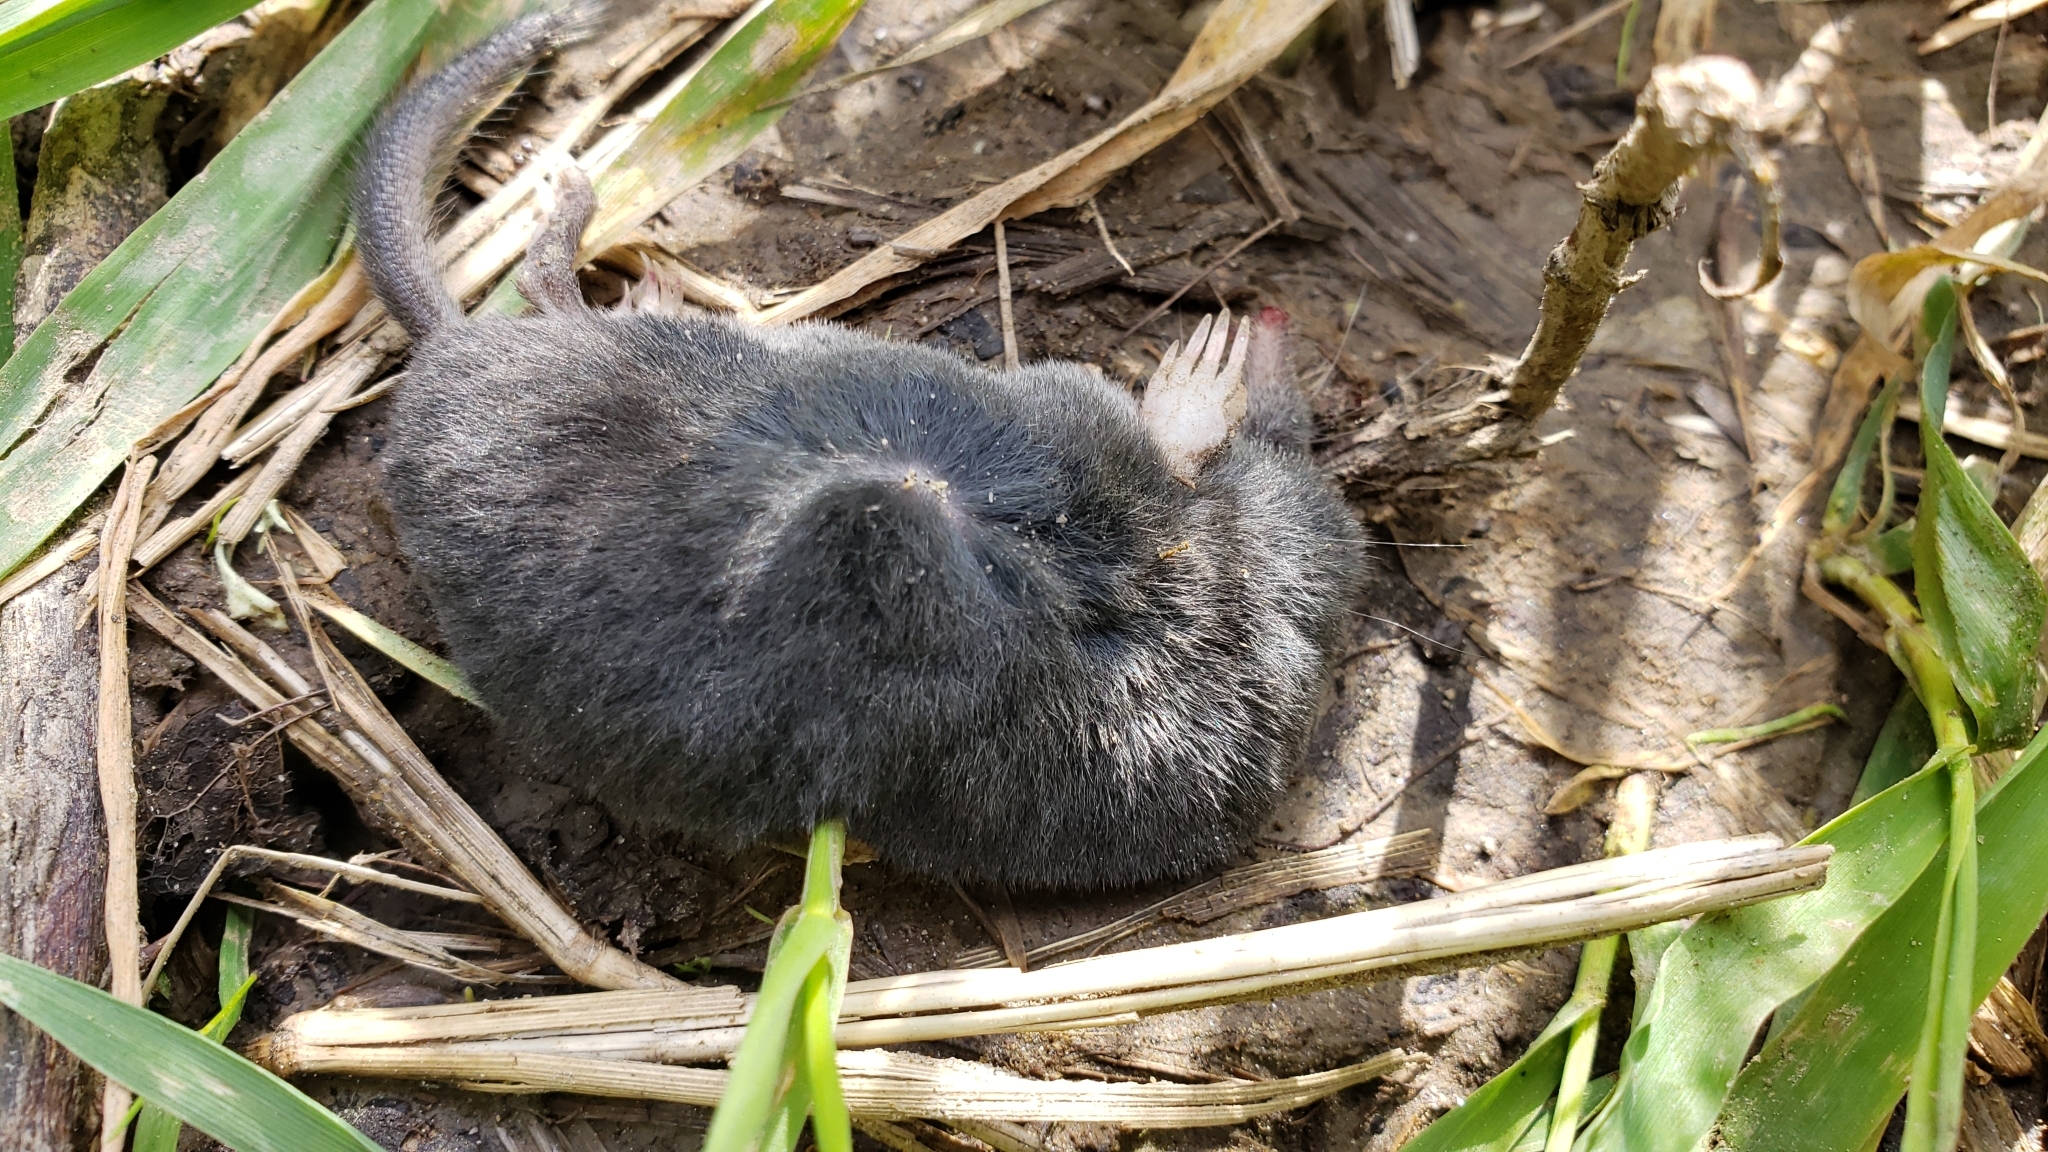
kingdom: Animalia
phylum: Chordata
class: Mammalia
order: Soricomorpha
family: Talpidae
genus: Neurotrichus
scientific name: Neurotrichus gibbsii
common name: American shrew mole
